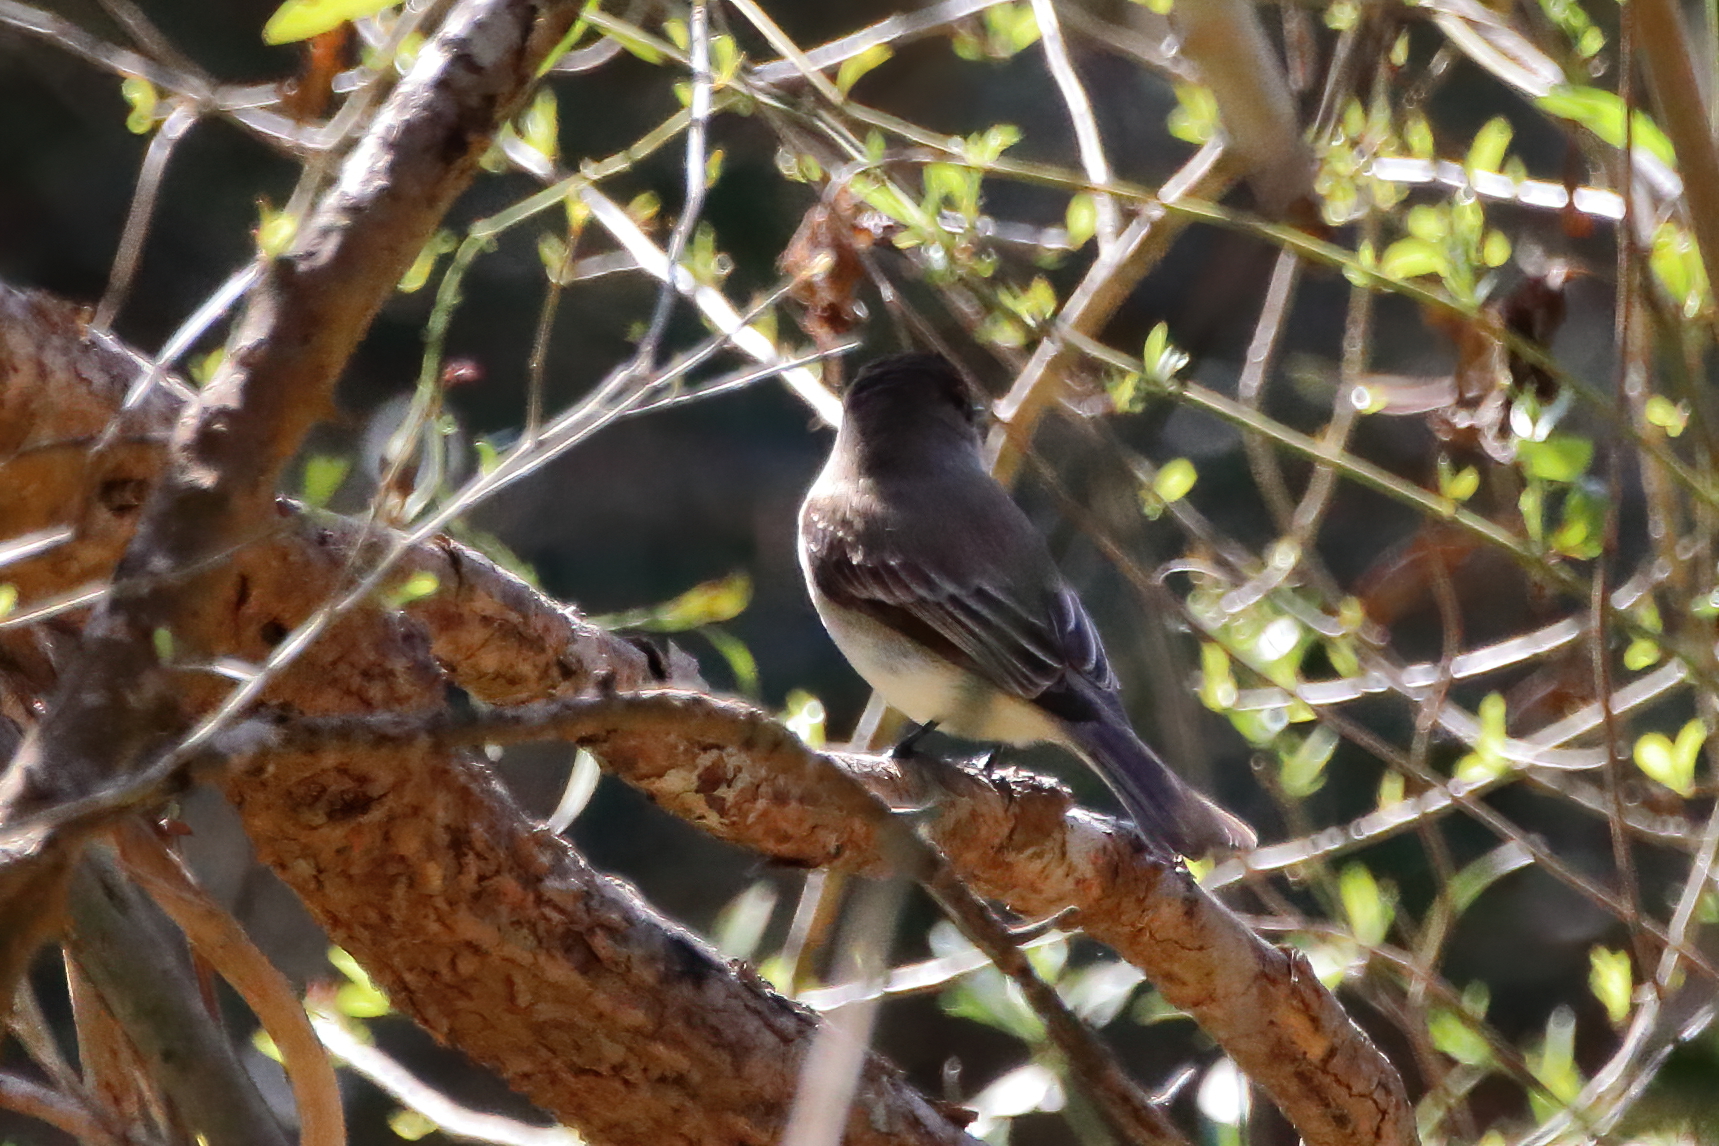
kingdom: Animalia
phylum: Chordata
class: Aves
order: Passeriformes
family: Tyrannidae
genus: Sayornis
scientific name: Sayornis phoebe
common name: Eastern phoebe
